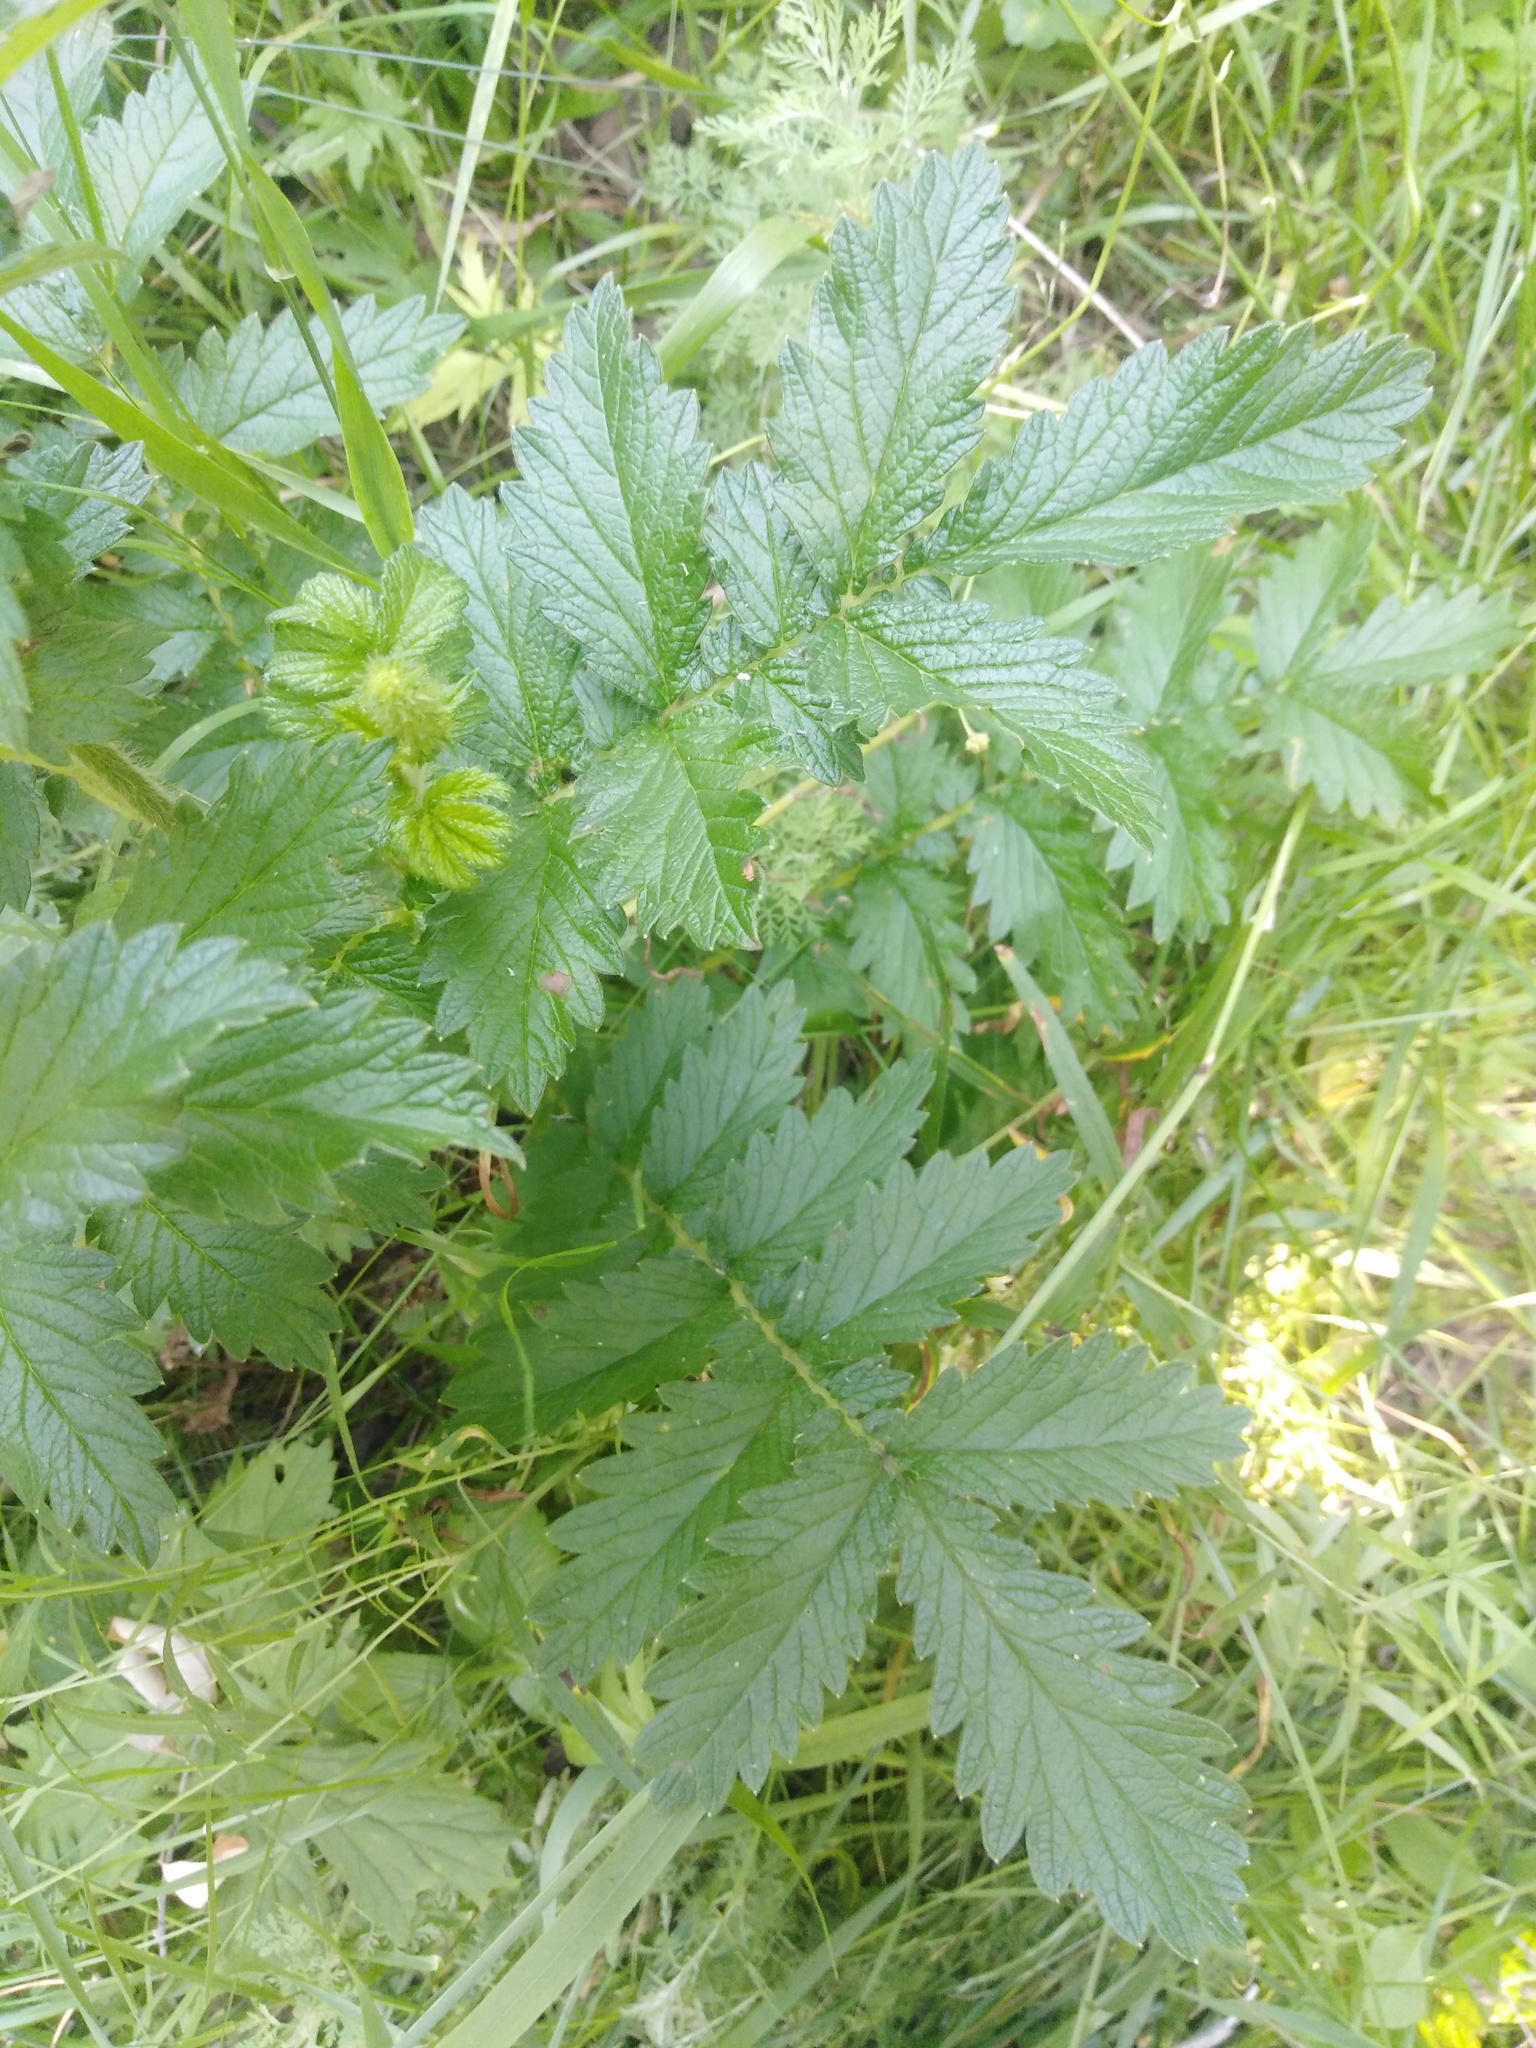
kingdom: Plantae
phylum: Tracheophyta
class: Magnoliopsida
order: Rosales
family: Rosaceae
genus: Agrimonia
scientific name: Agrimonia eupatoria
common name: Agrimony
